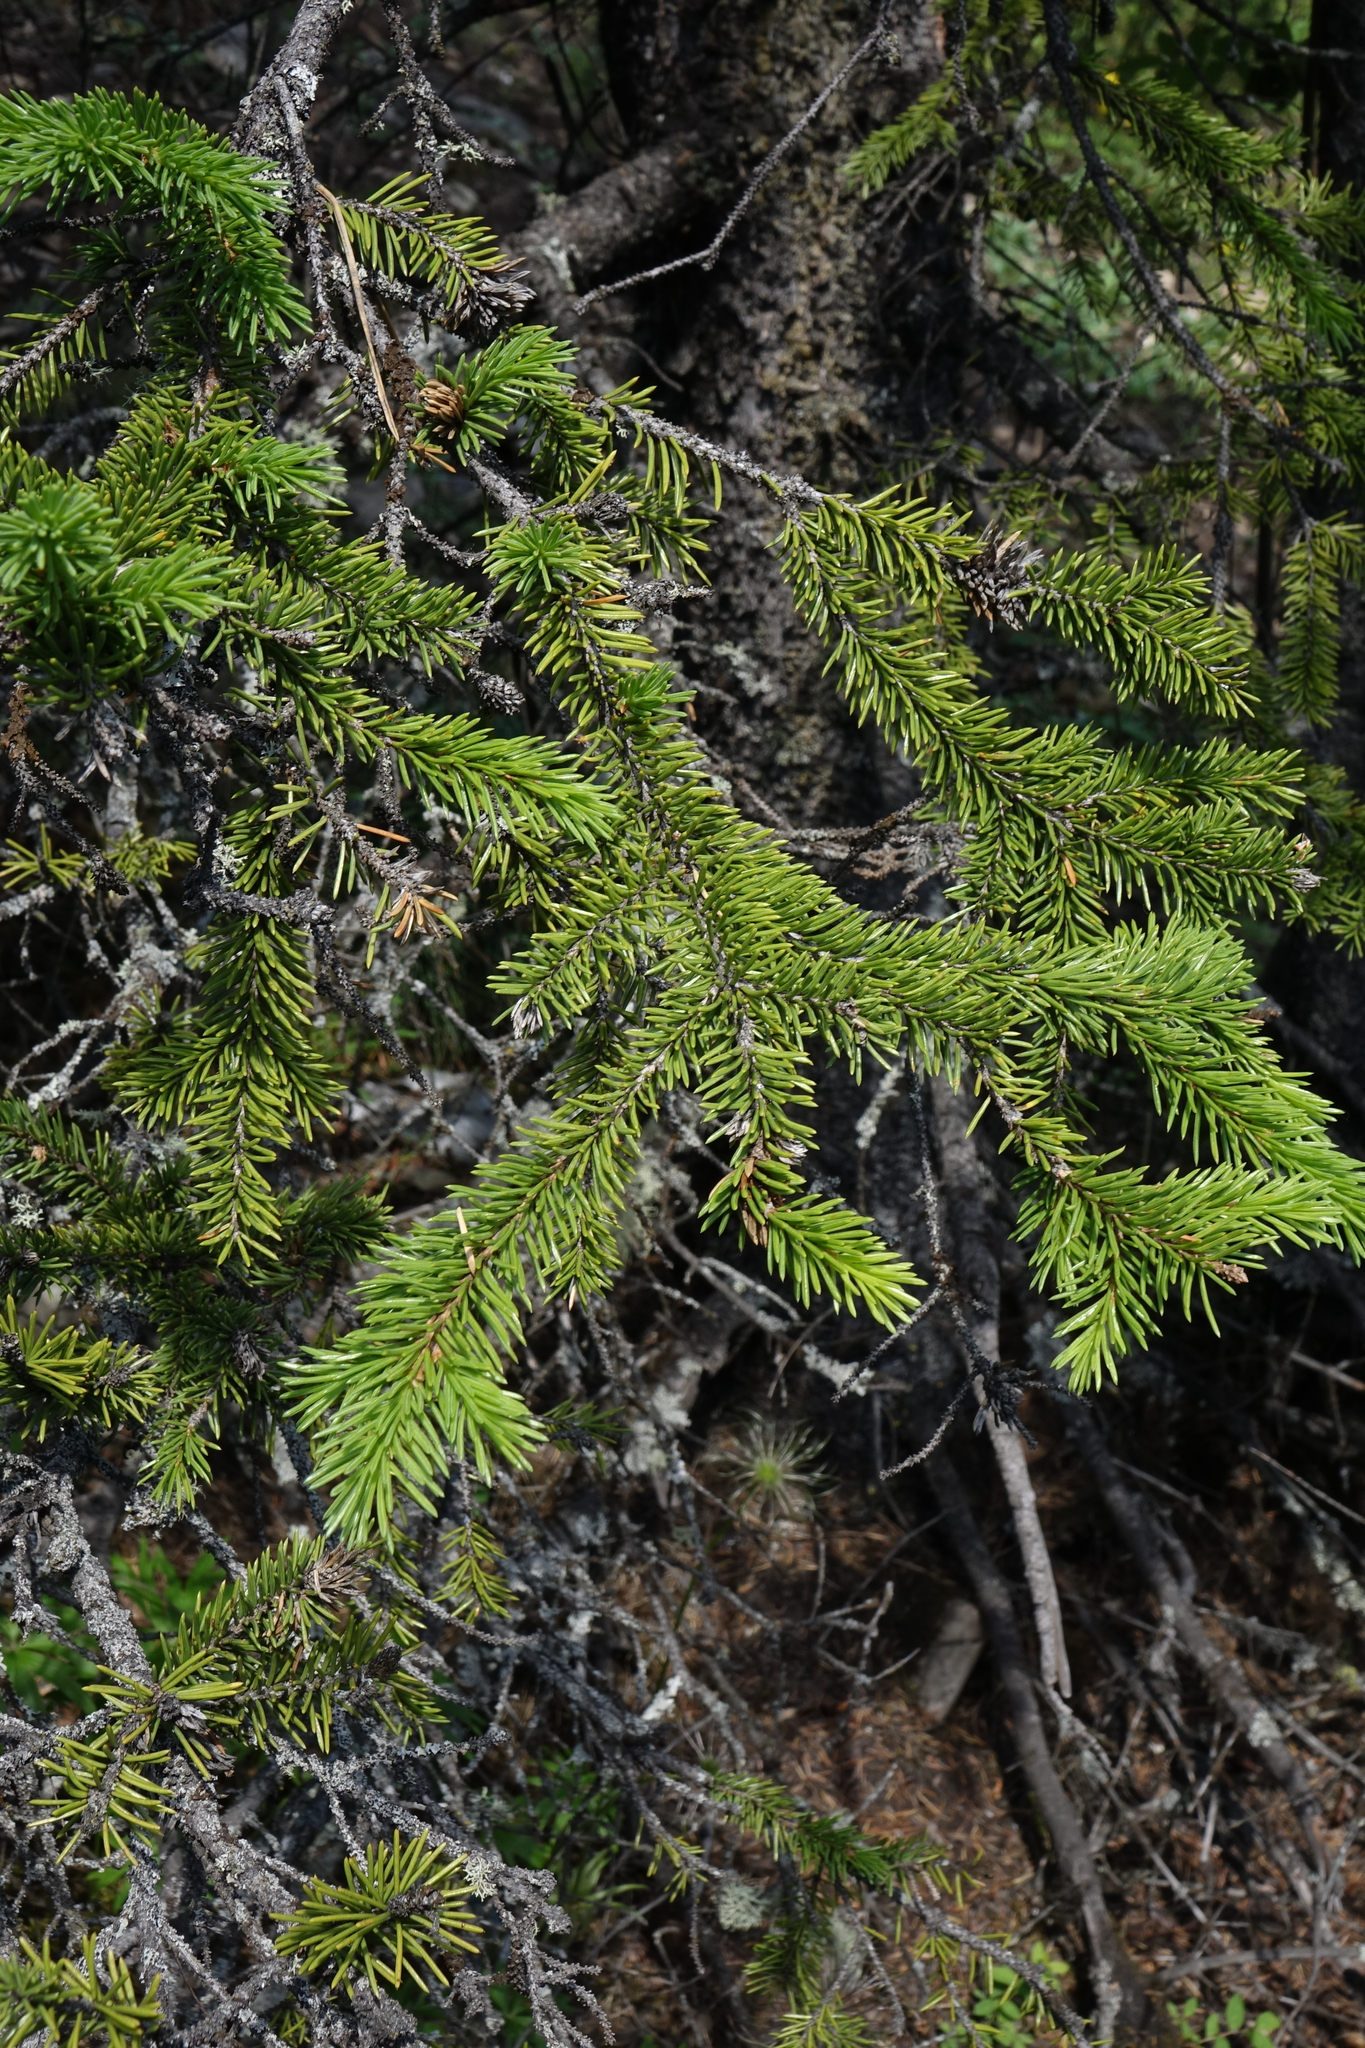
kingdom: Plantae
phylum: Tracheophyta
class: Pinopsida
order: Pinales
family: Pinaceae
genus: Picea
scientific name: Picea obovata
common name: Siberian spruce
